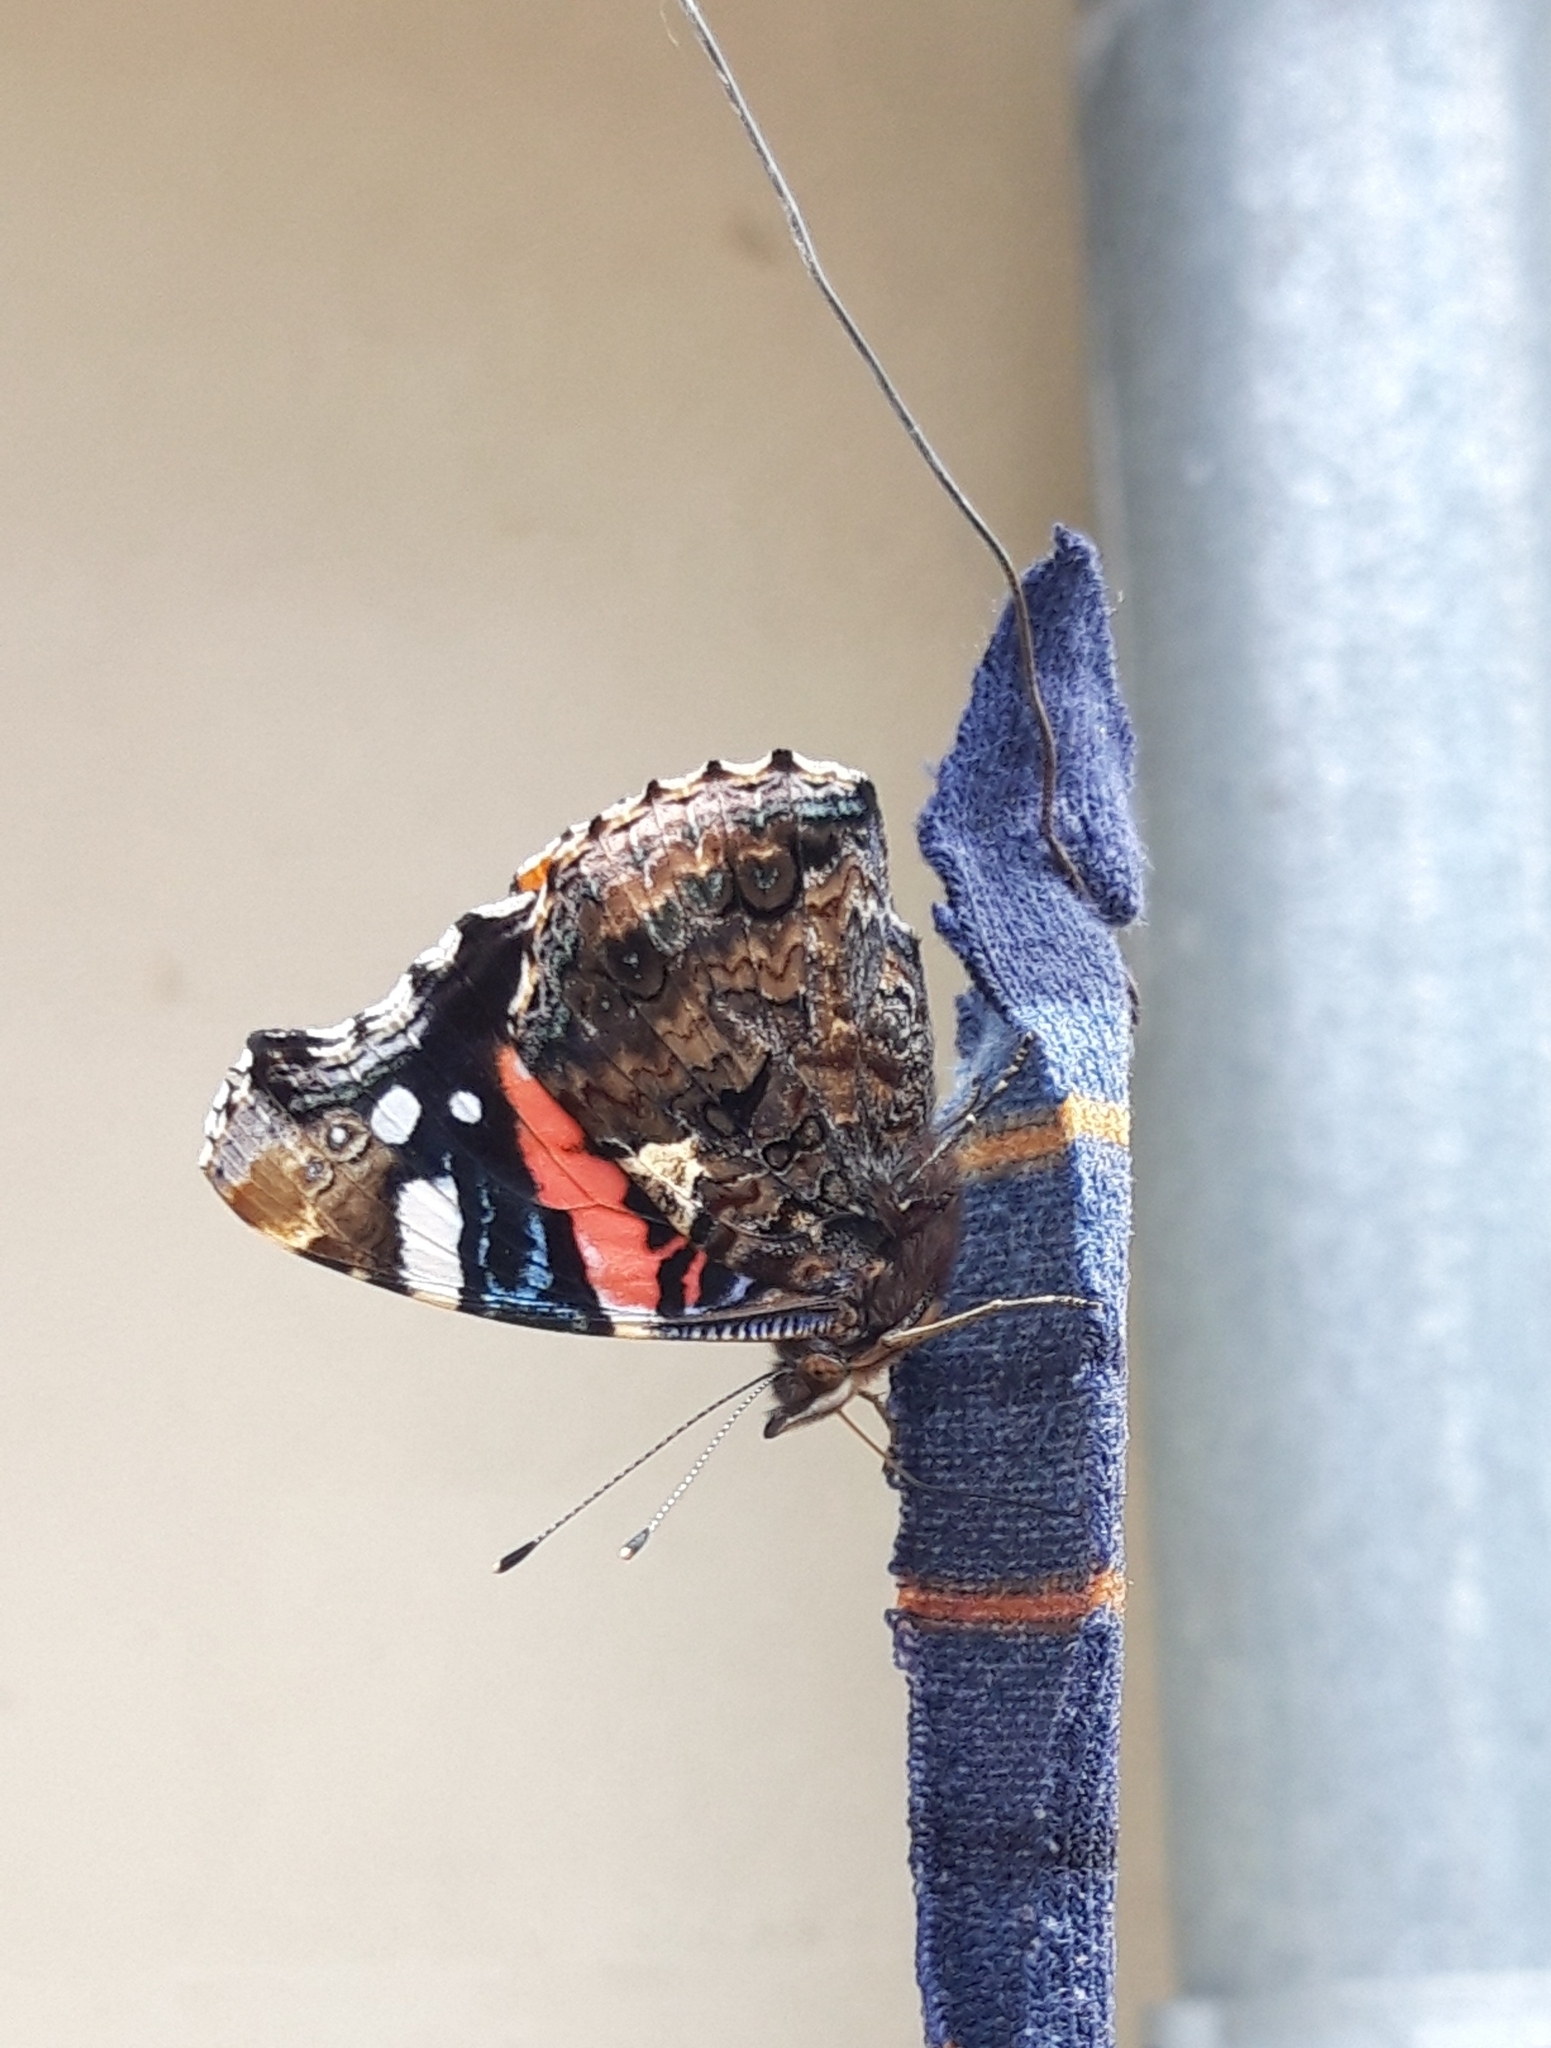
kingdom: Animalia
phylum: Arthropoda
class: Insecta
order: Lepidoptera
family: Nymphalidae
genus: Vanessa
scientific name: Vanessa atalanta
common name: Red admiral
